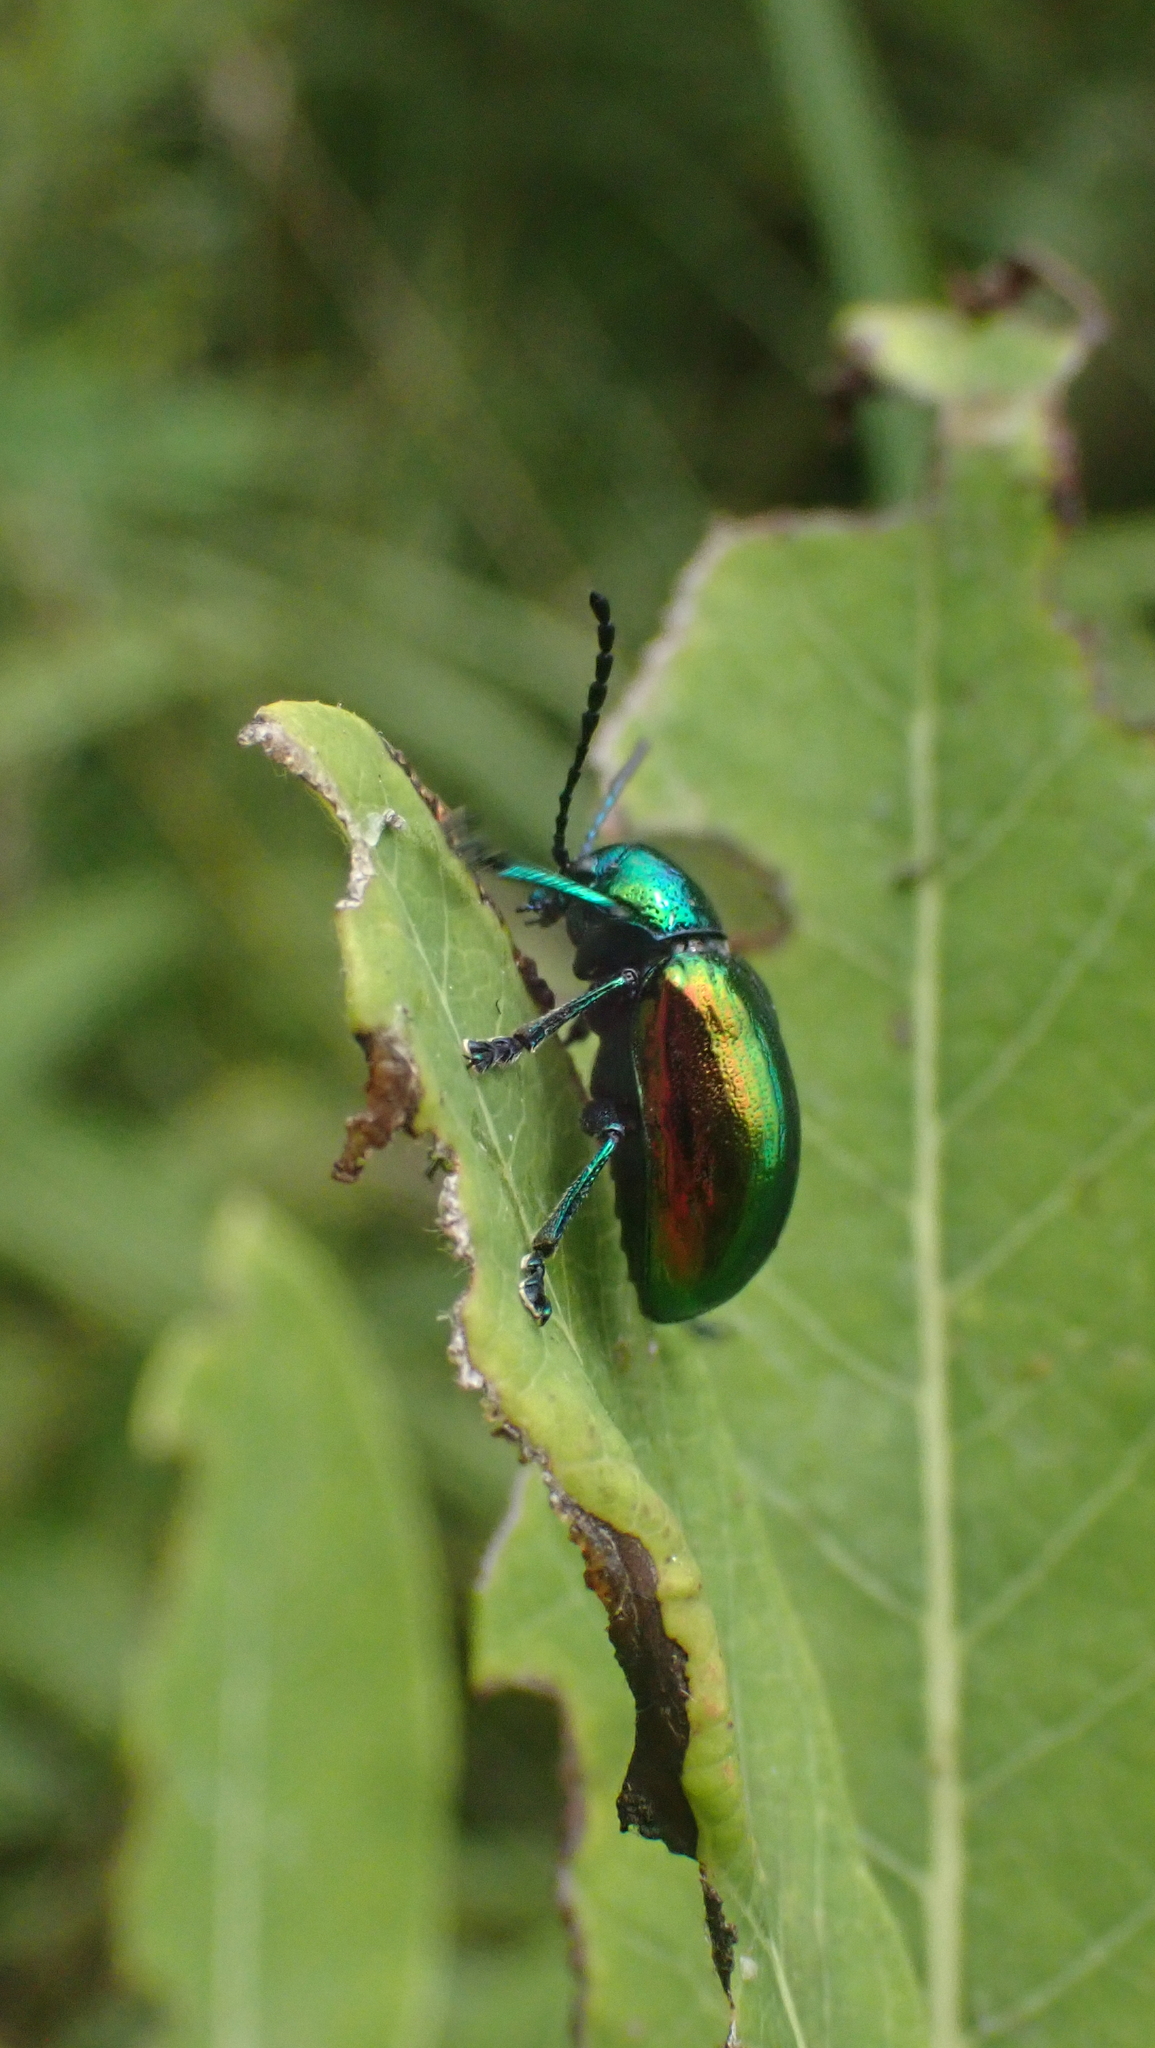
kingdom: Animalia
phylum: Arthropoda
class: Insecta
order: Coleoptera
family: Chrysomelidae
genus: Chrysochus
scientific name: Chrysochus auratus
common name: Dogbane leaf beetle
